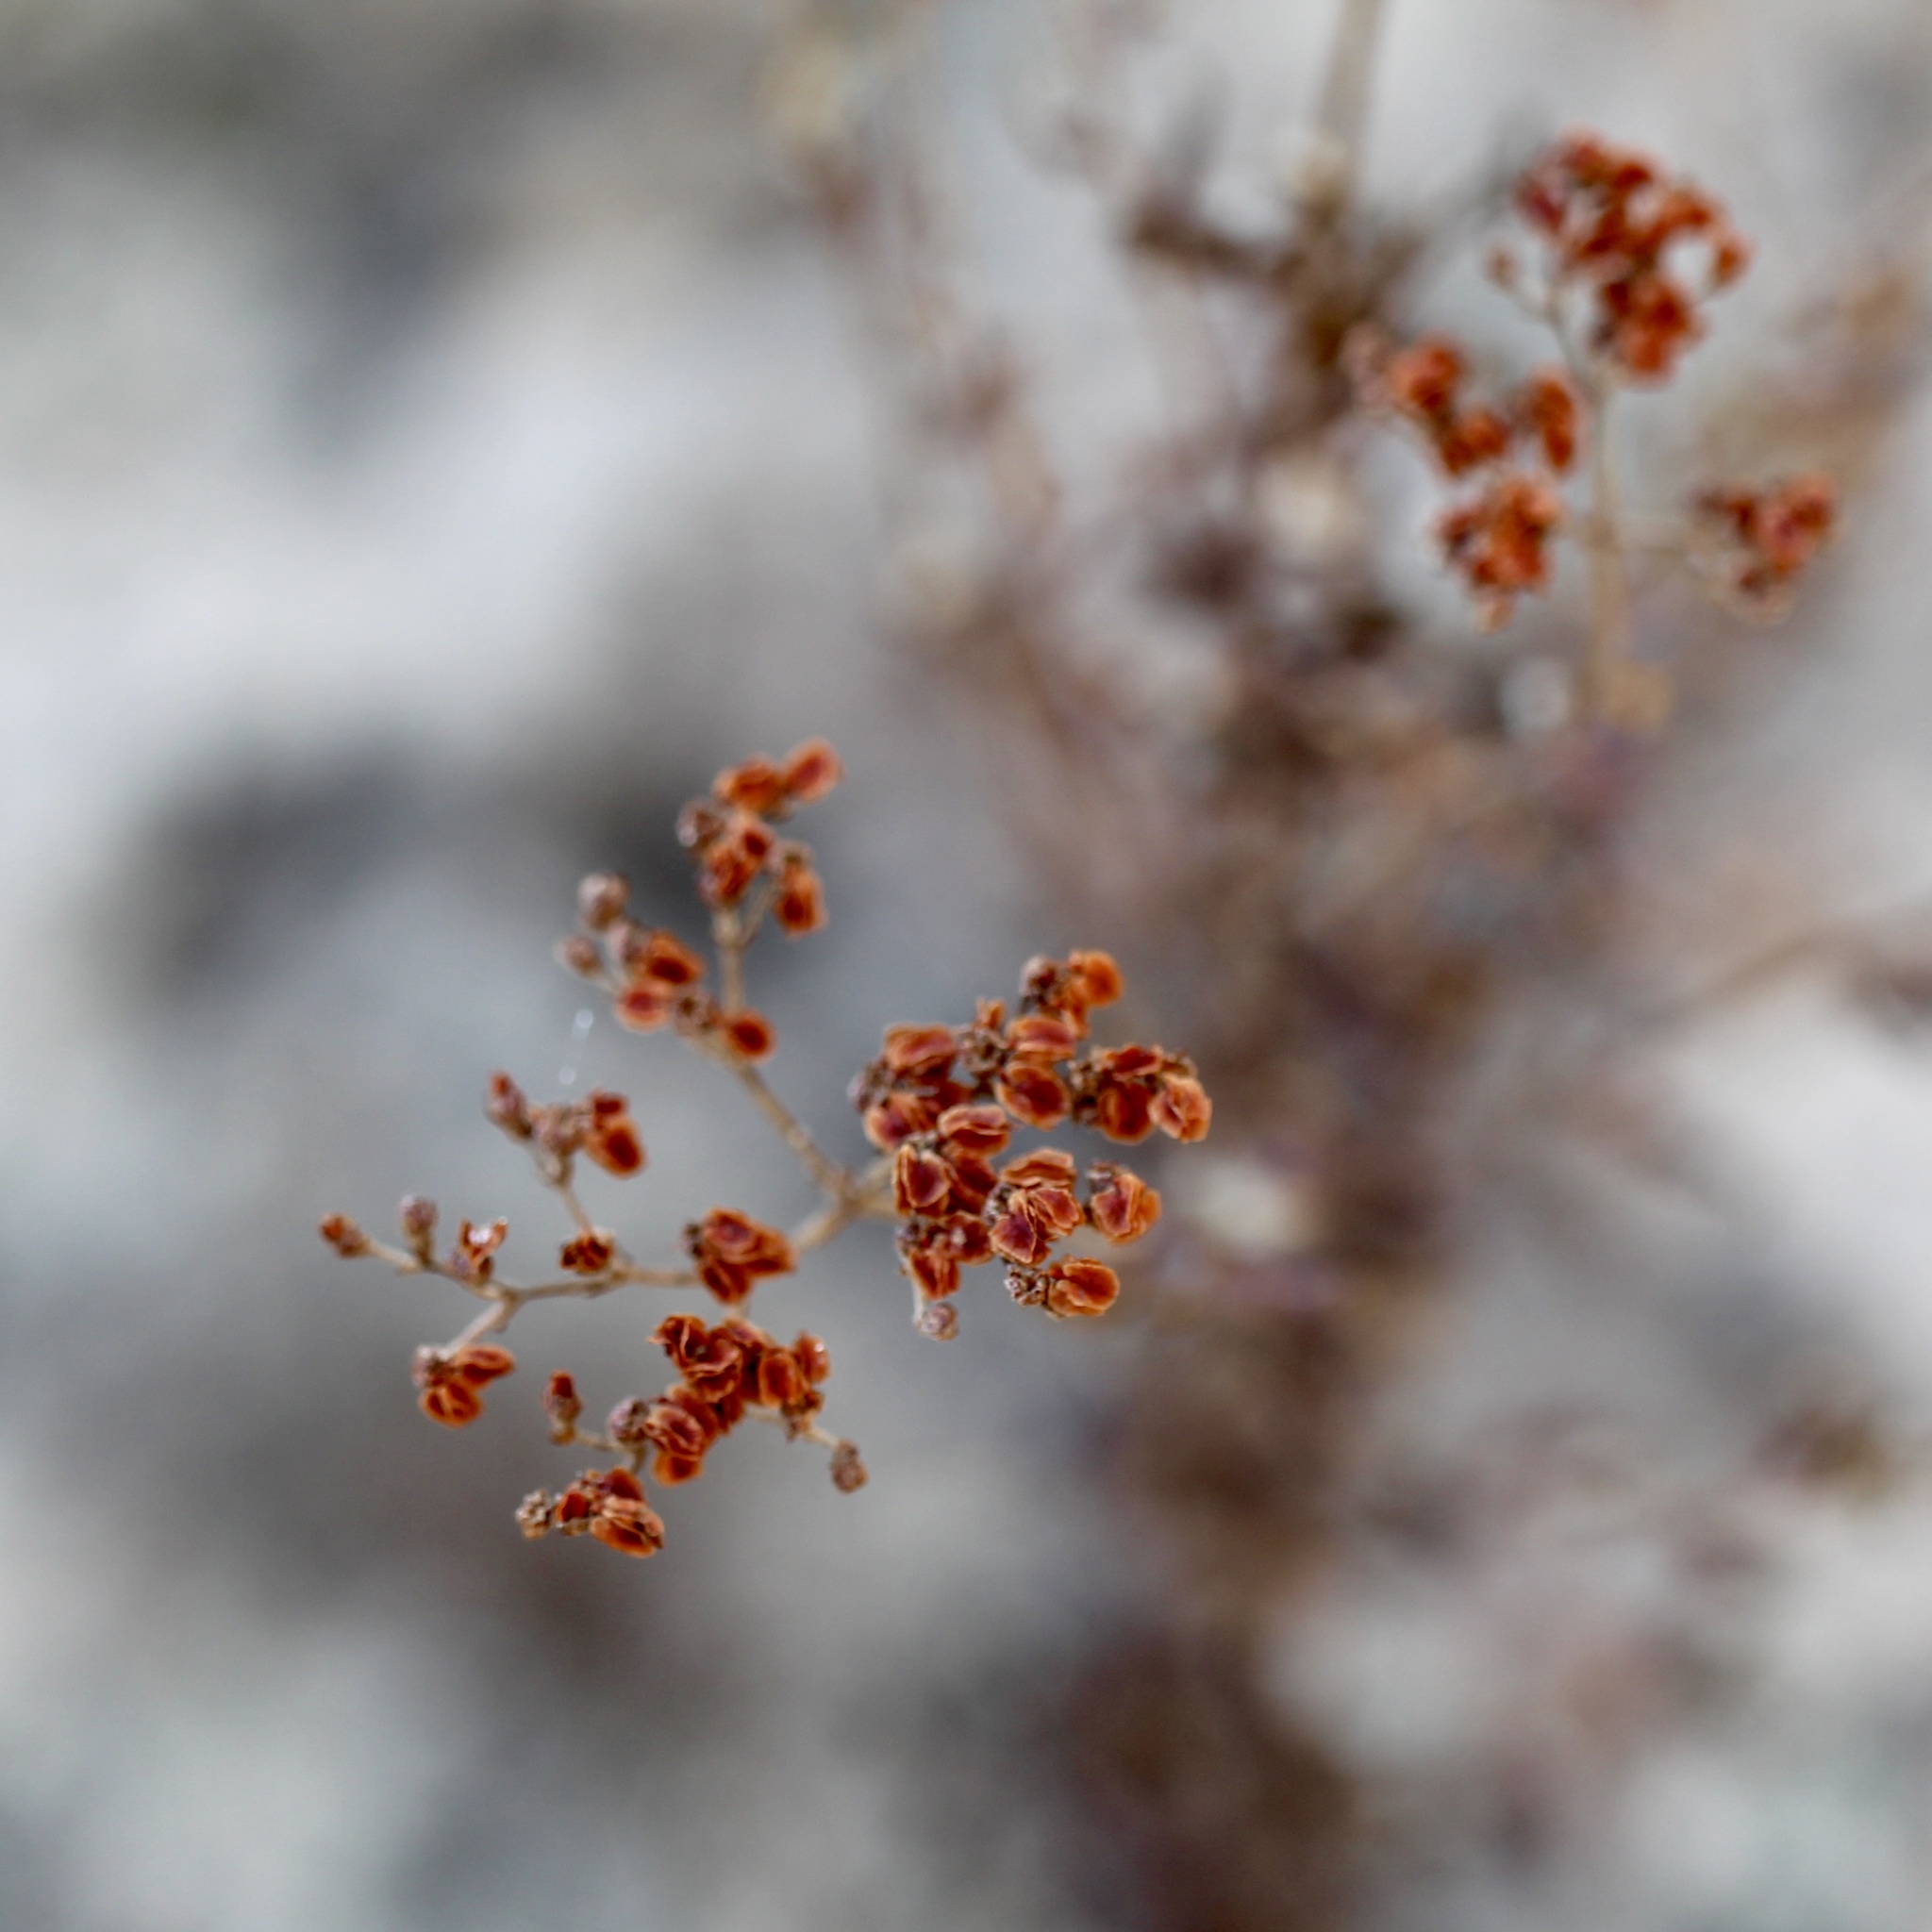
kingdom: Plantae
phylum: Tracheophyta
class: Magnoliopsida
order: Caryophyllales
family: Polygonaceae
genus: Eriogonum
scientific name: Eriogonum multiflorum
